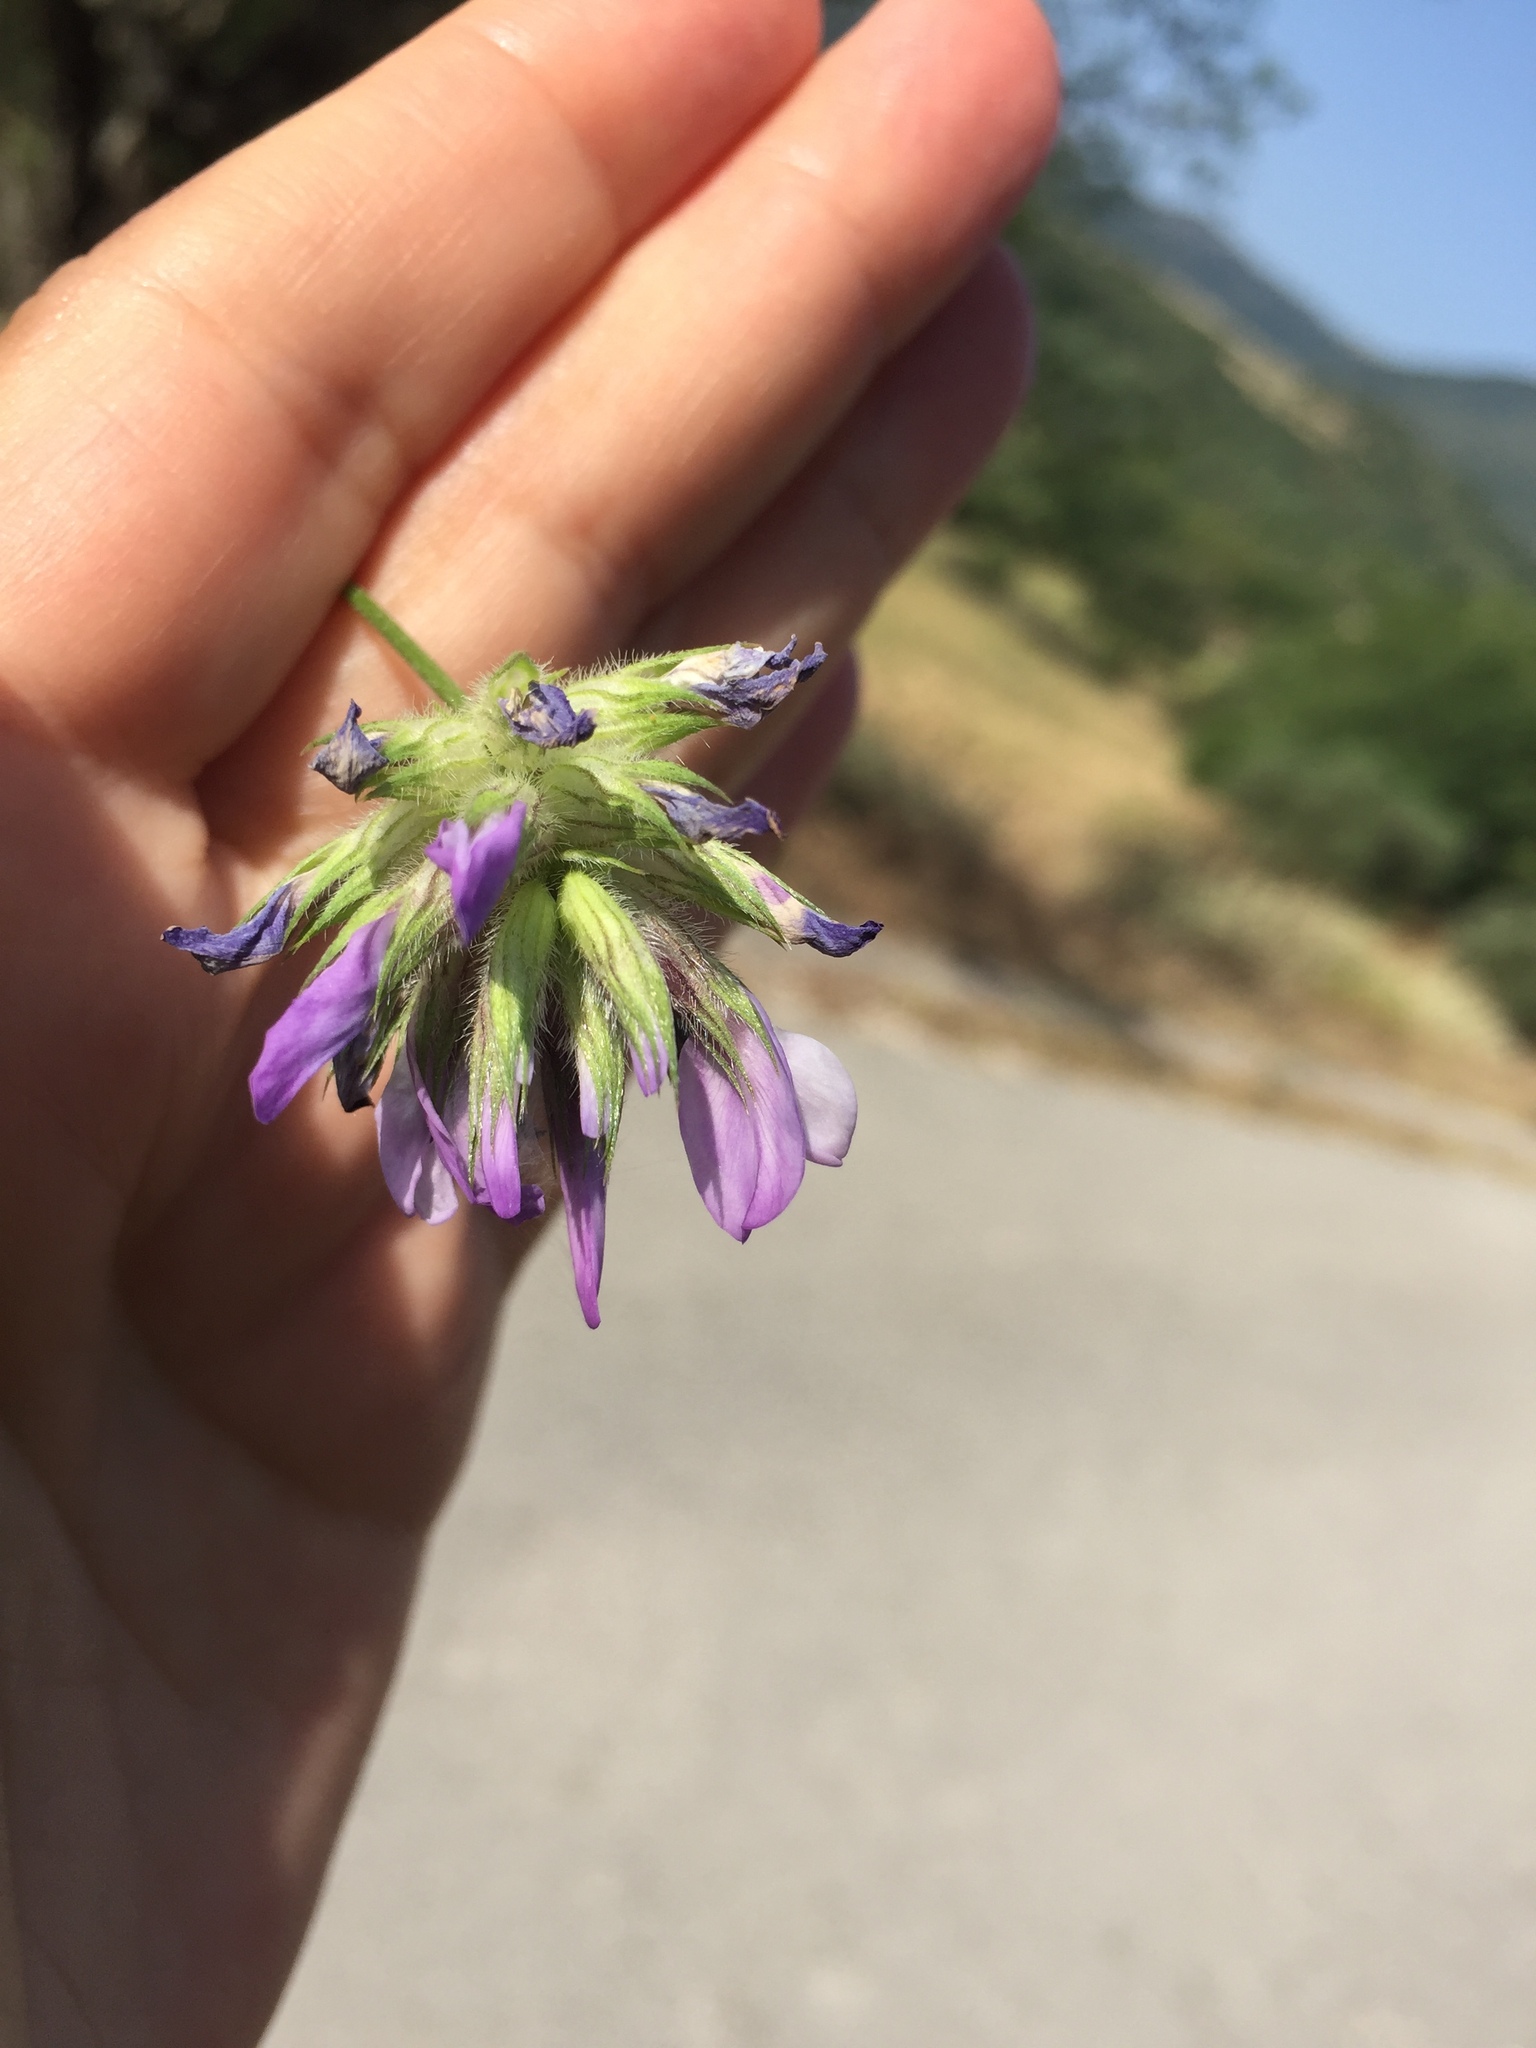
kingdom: Plantae
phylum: Tracheophyta
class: Magnoliopsida
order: Fabales
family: Fabaceae
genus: Bituminaria
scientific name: Bituminaria bituminosa
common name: Arabian pea
